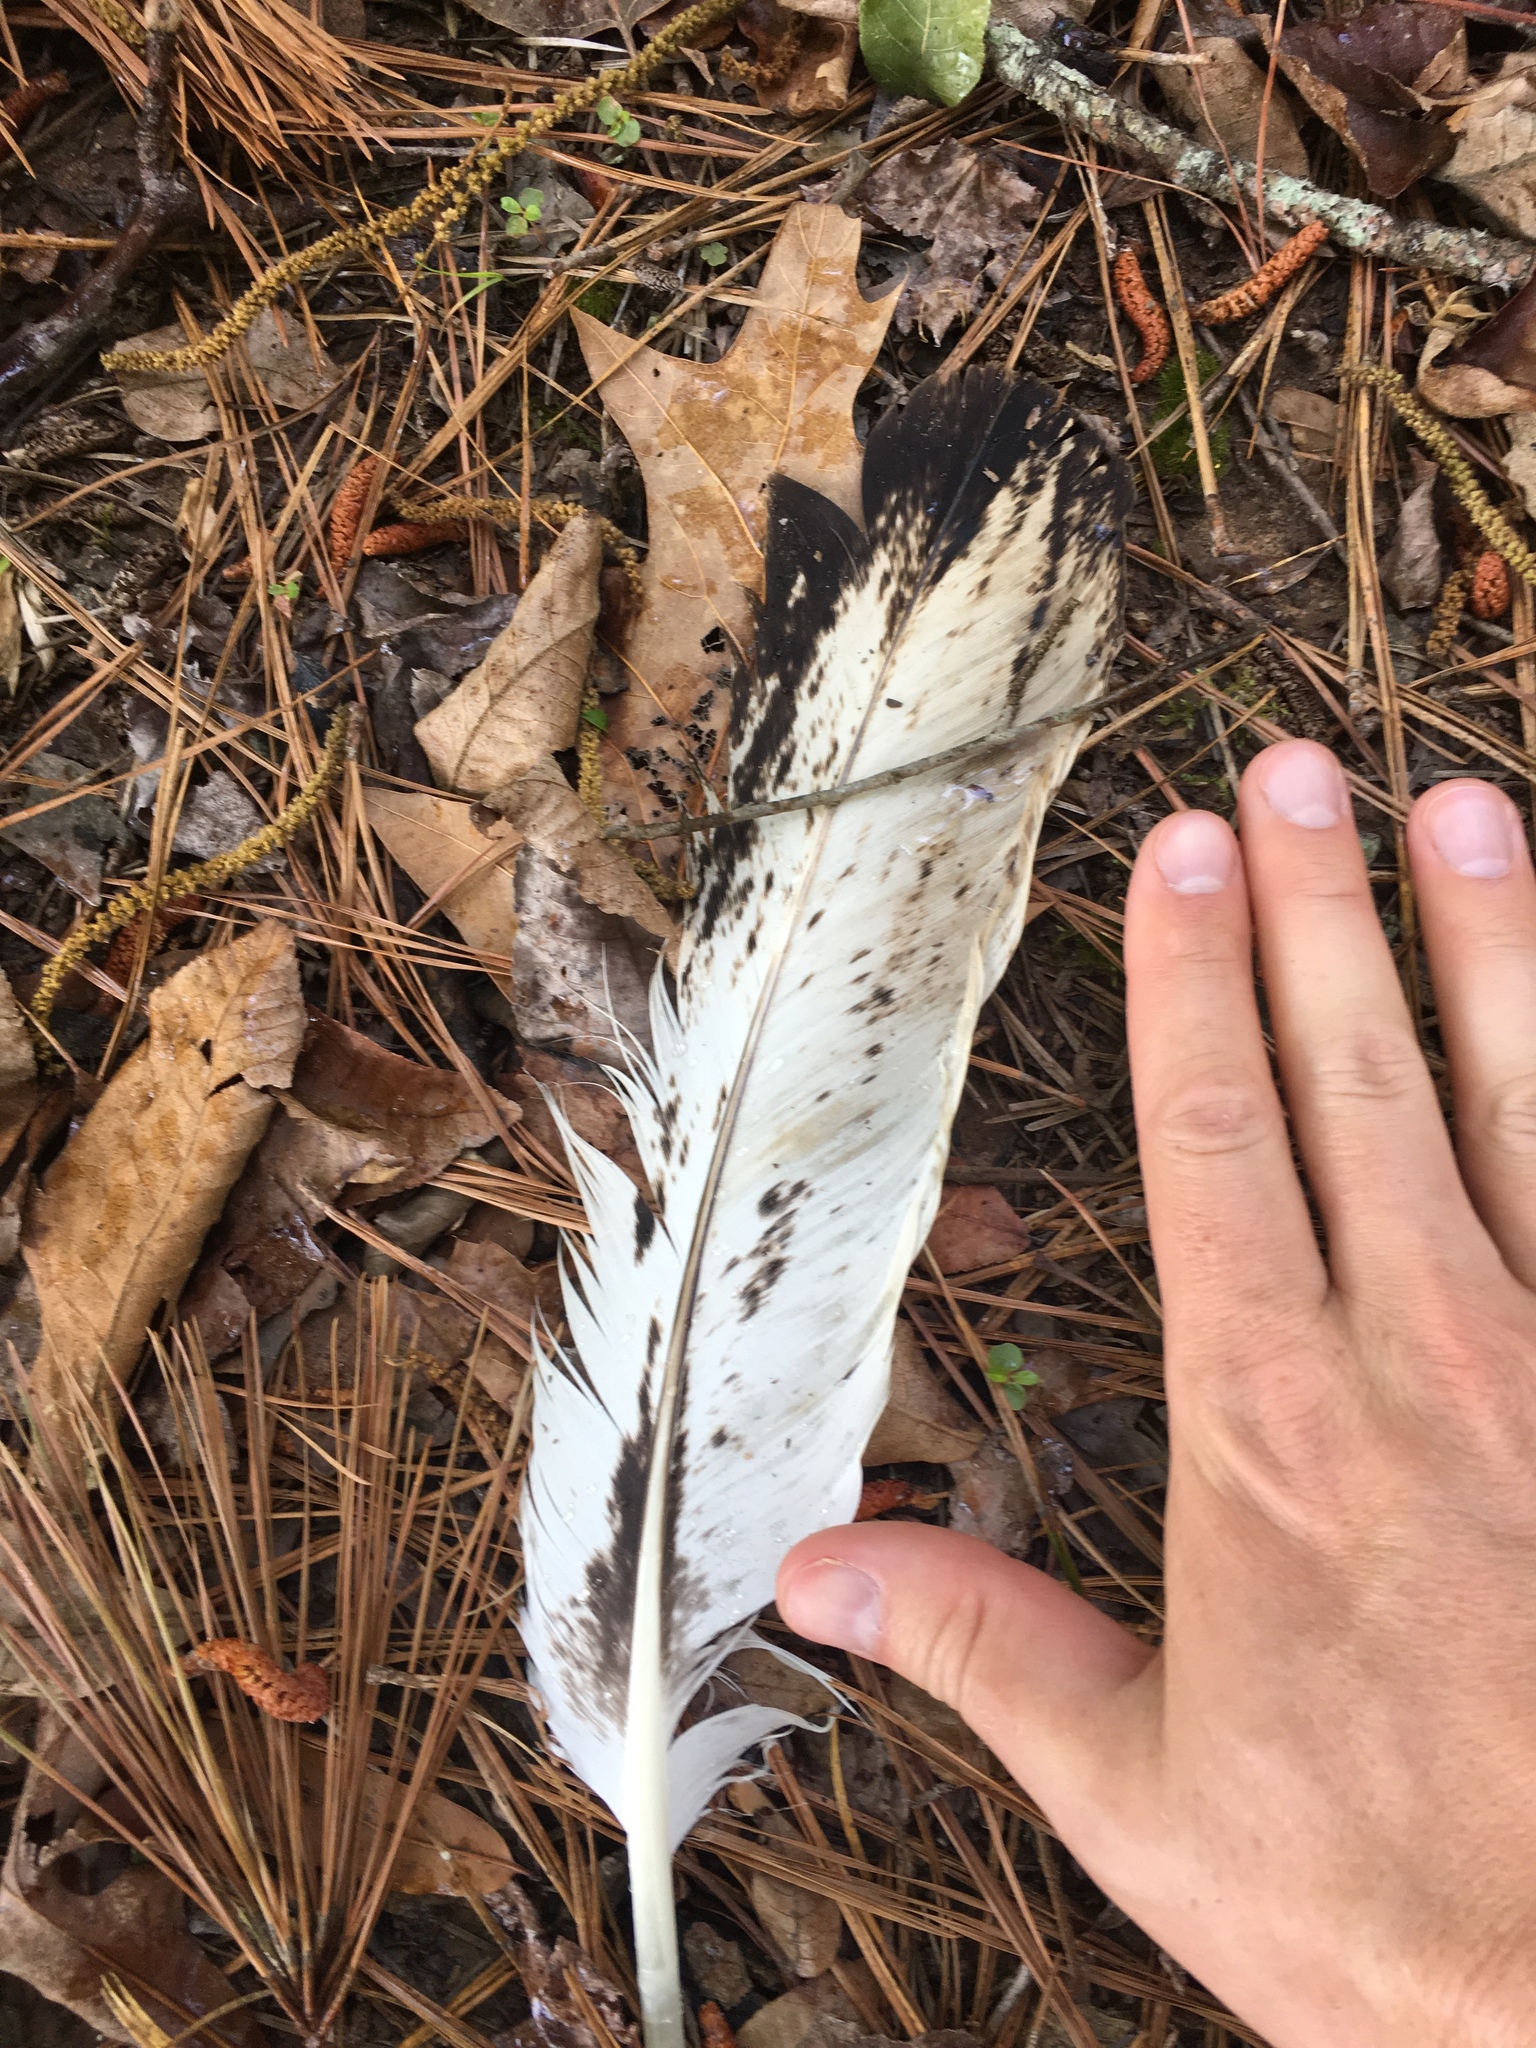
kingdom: Animalia
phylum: Chordata
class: Aves
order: Accipitriformes
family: Accipitridae
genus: Haliaeetus
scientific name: Haliaeetus leucocephalus
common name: Bald eagle
